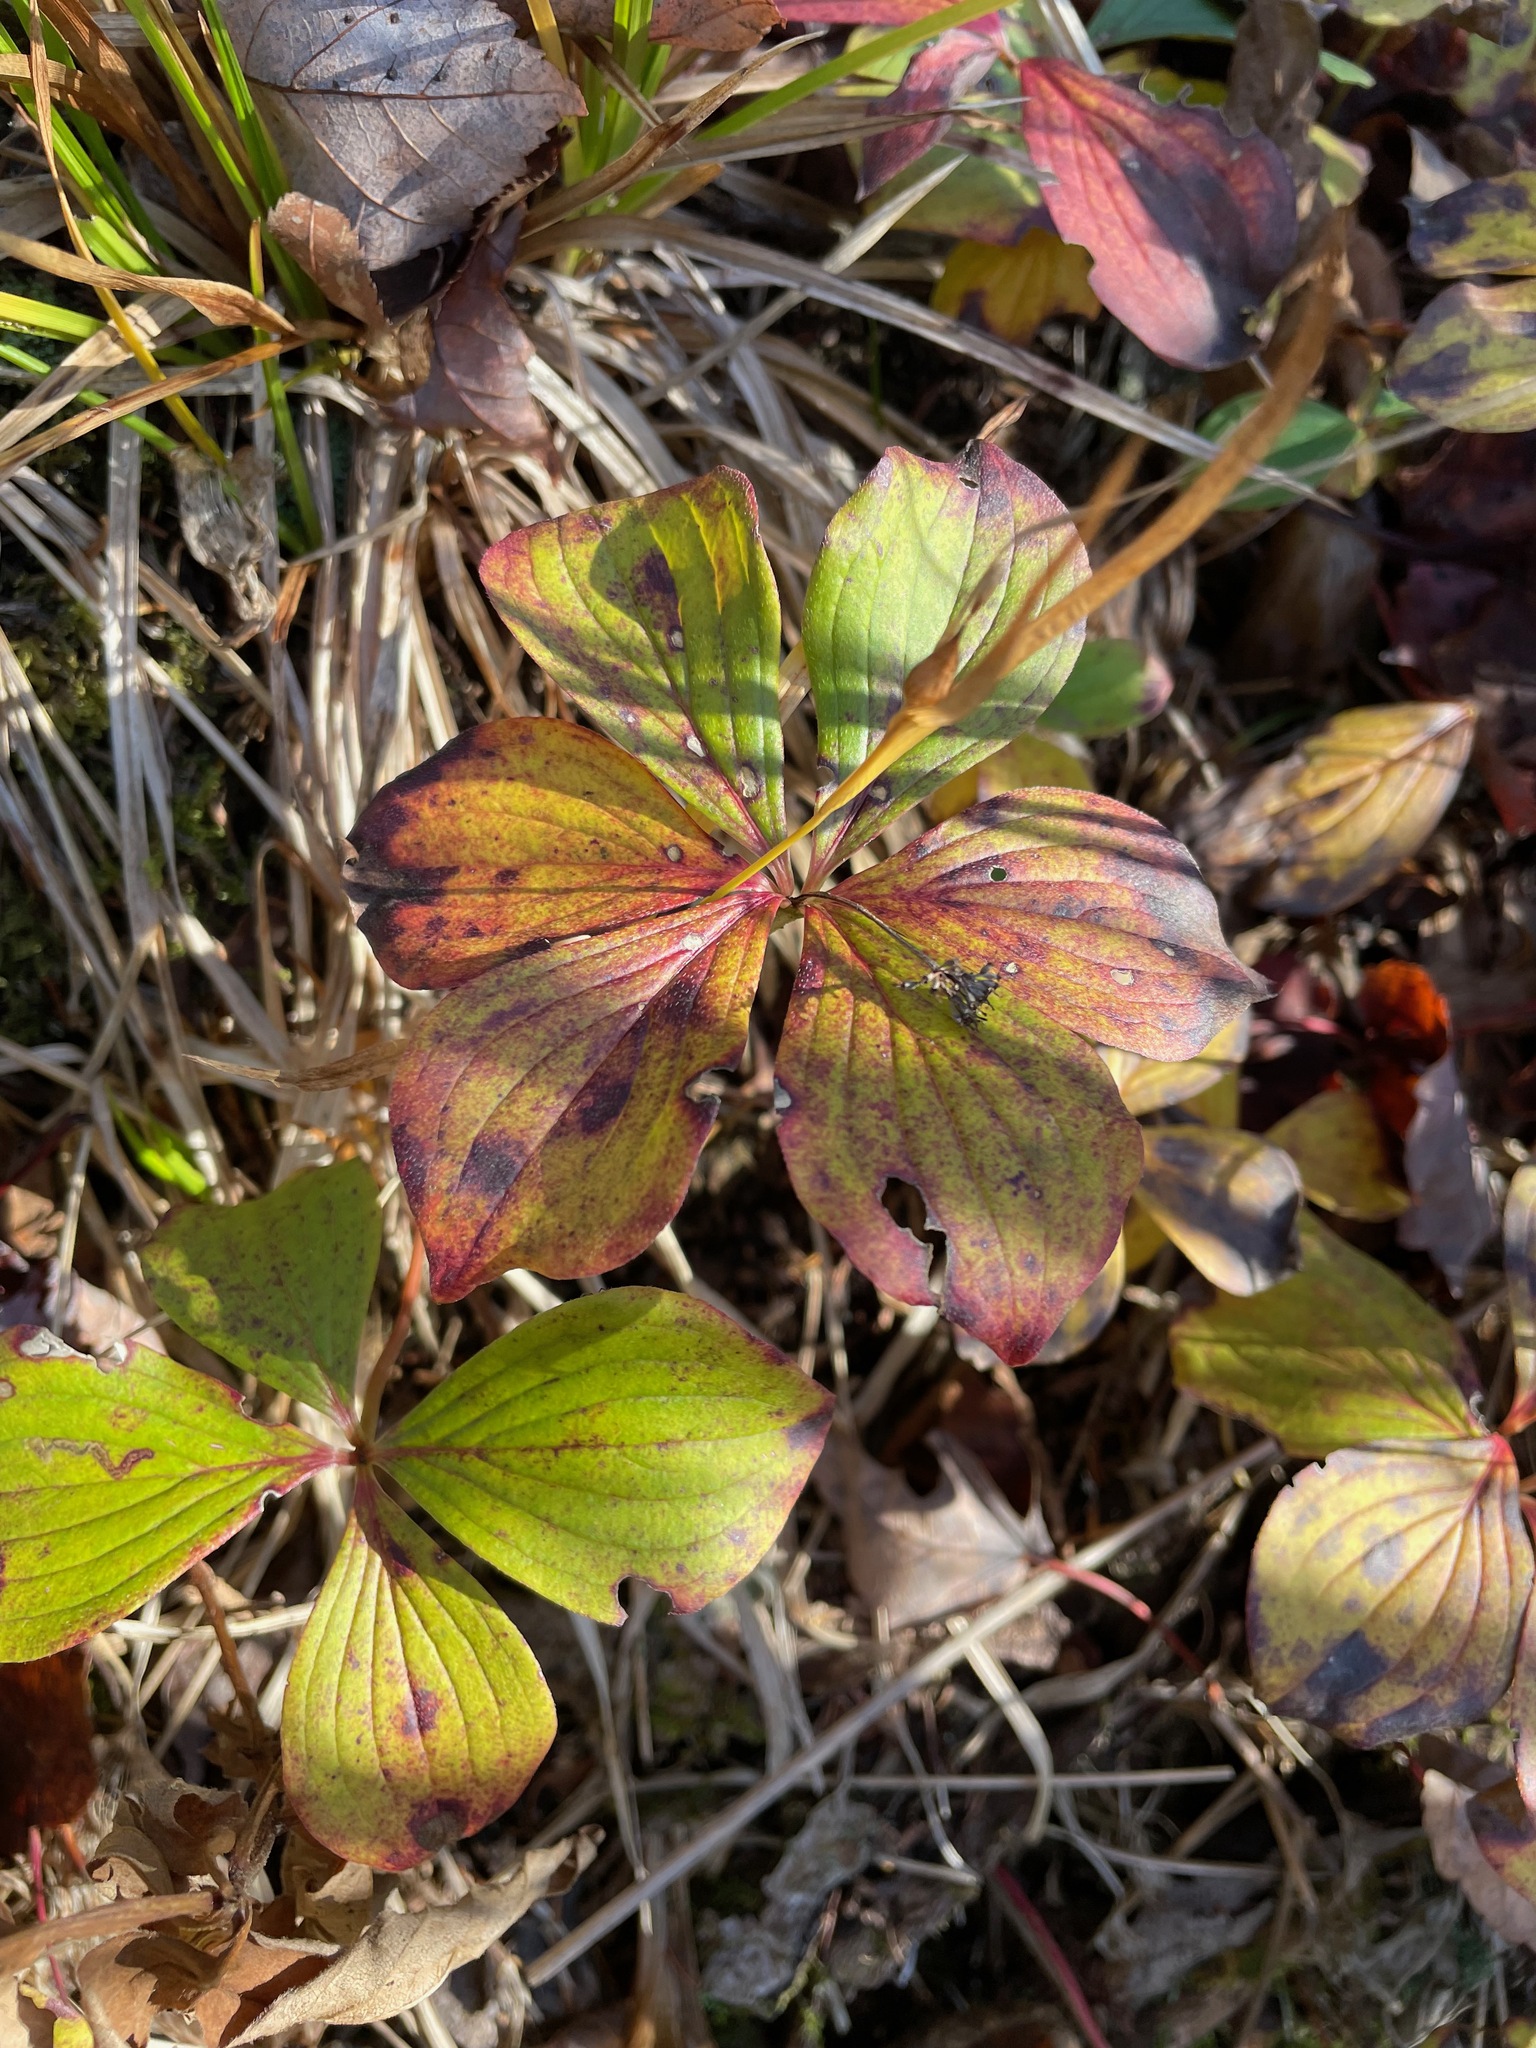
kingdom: Plantae
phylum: Tracheophyta
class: Magnoliopsida
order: Cornales
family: Cornaceae
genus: Cornus
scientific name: Cornus canadensis
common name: Creeping dogwood
